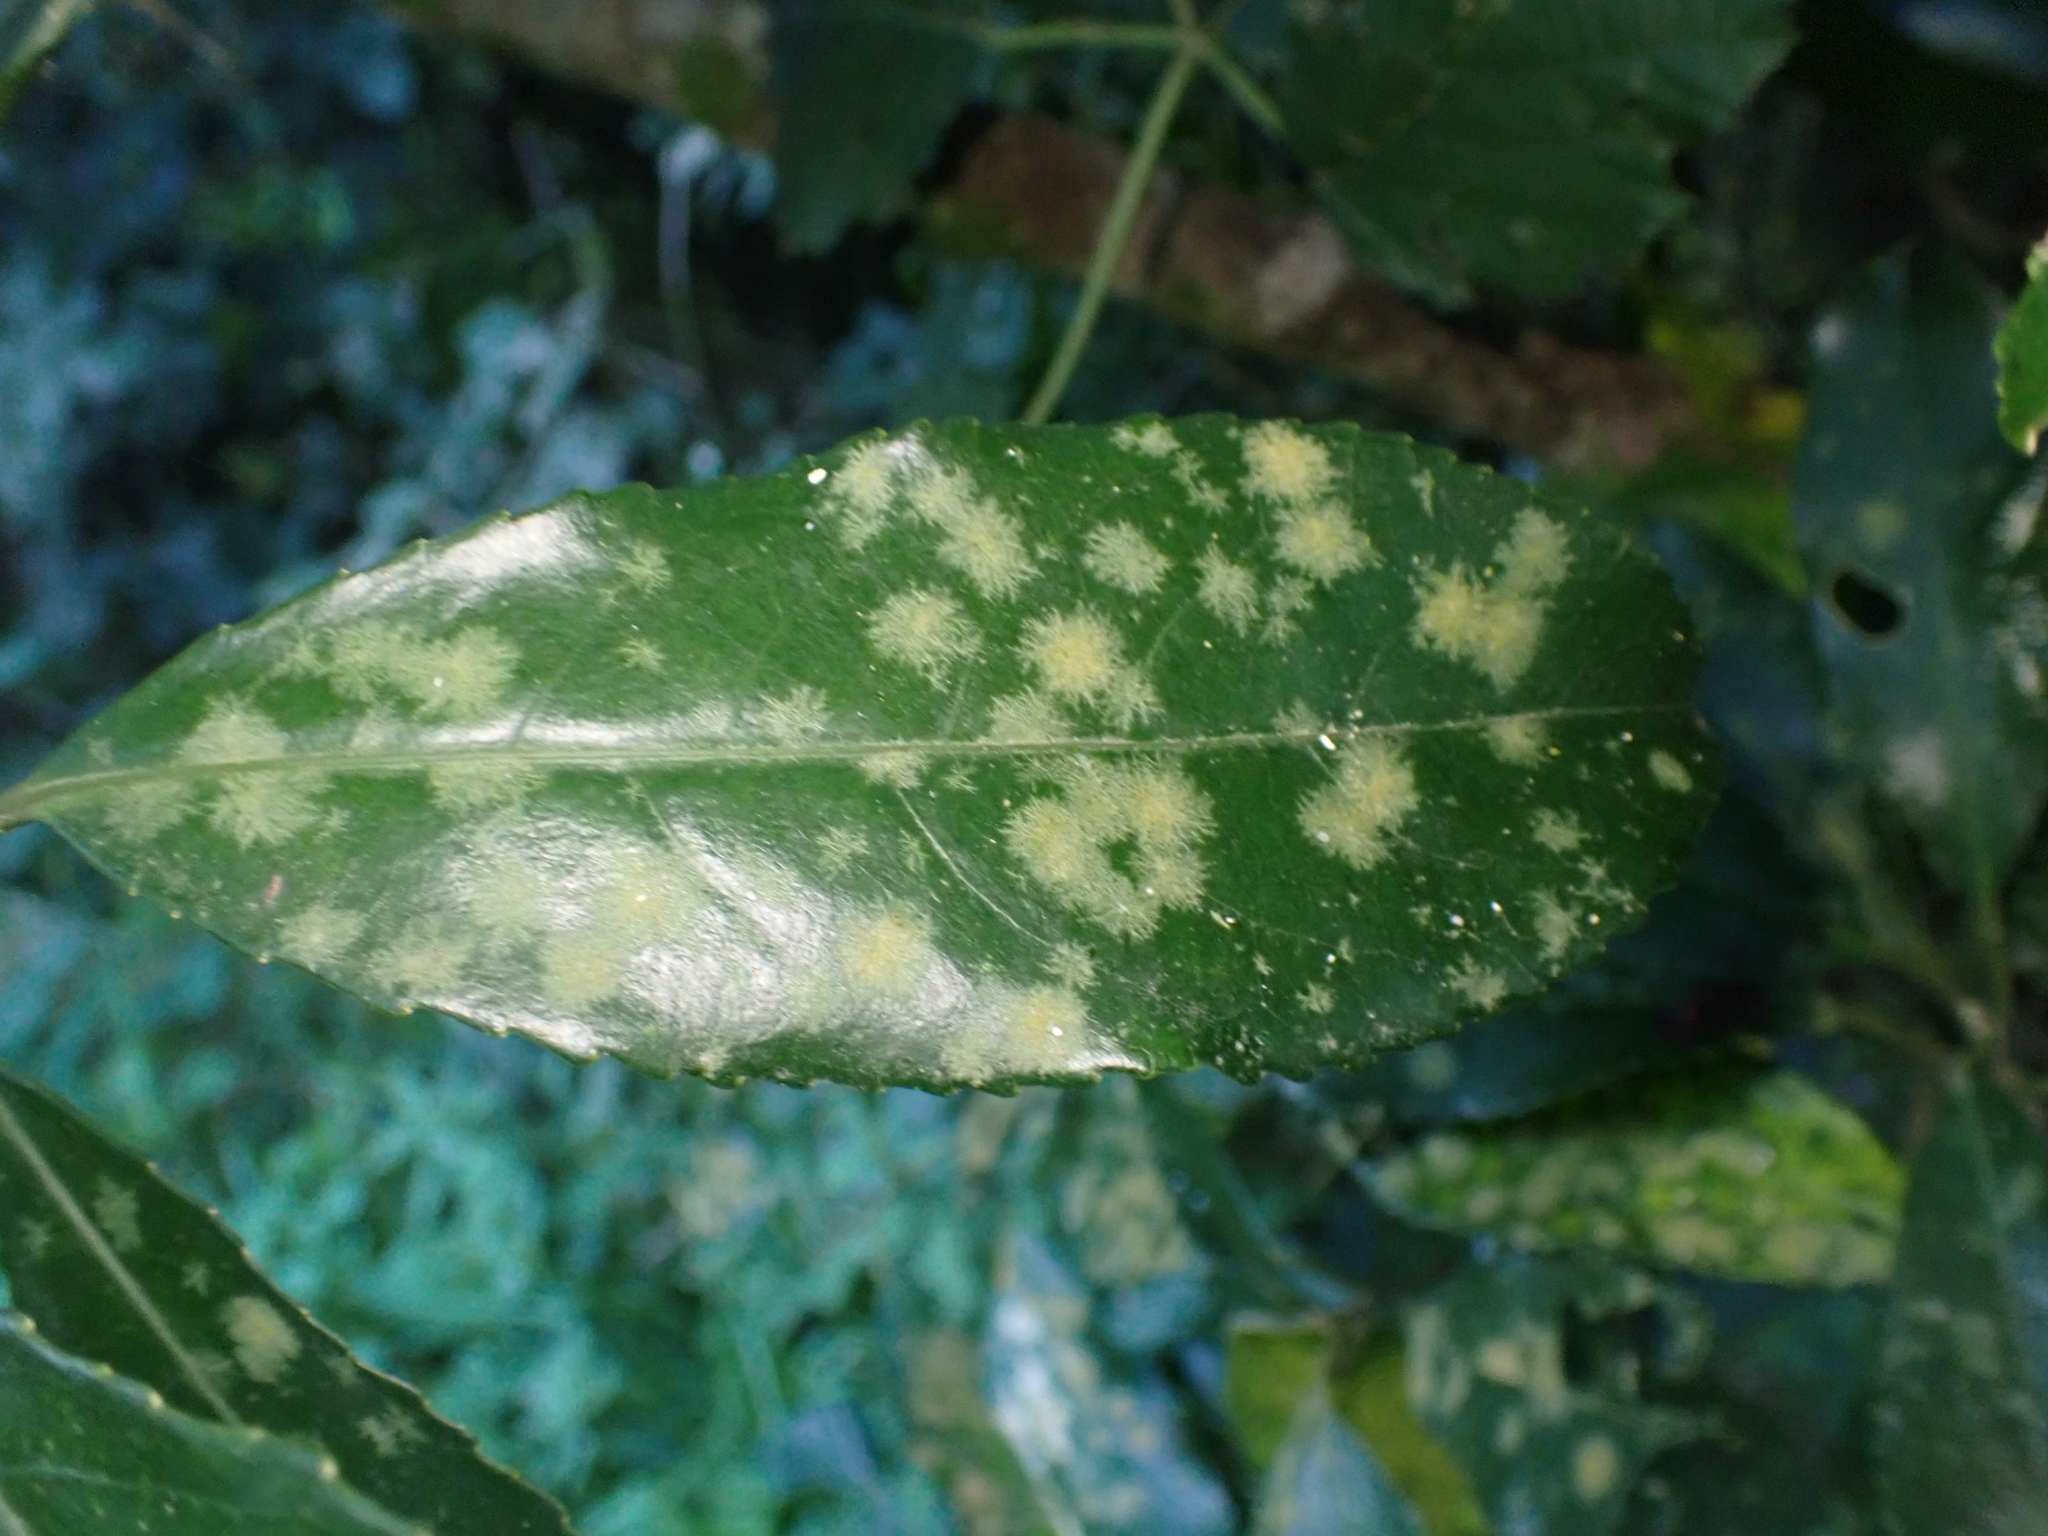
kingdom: Plantae
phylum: Chlorophyta
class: Ulvophyceae
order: Trentepohliales
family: Trentepohliaceae
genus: Cephaleuros
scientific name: Cephaleuros
